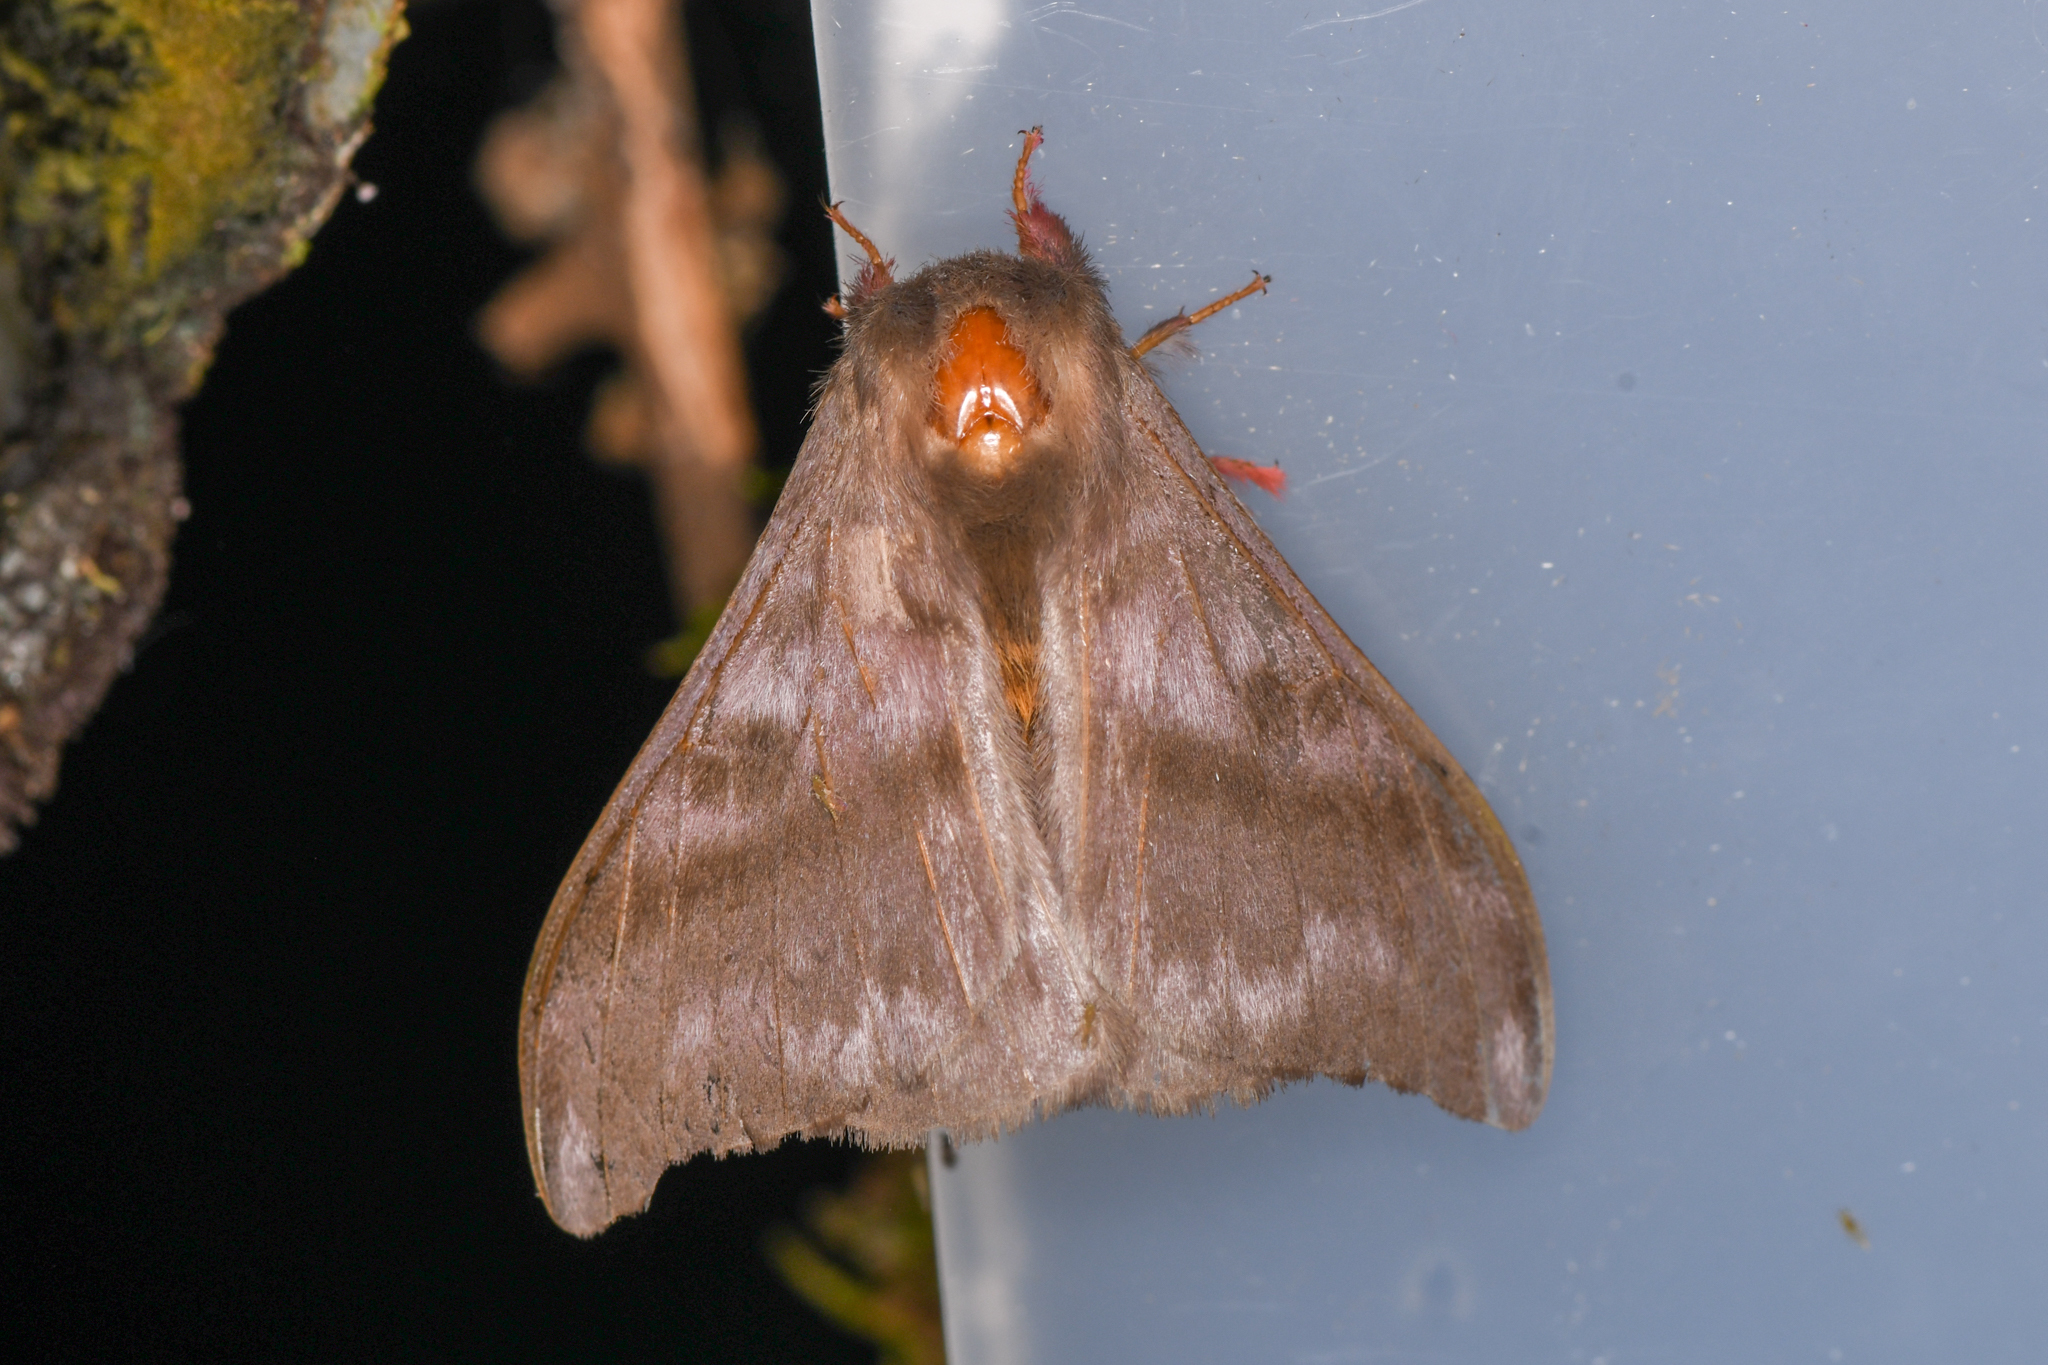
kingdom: Animalia
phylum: Arthropoda
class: Insecta
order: Lepidoptera
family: Saturniidae
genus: Hylesia
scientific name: Hylesia dalina
